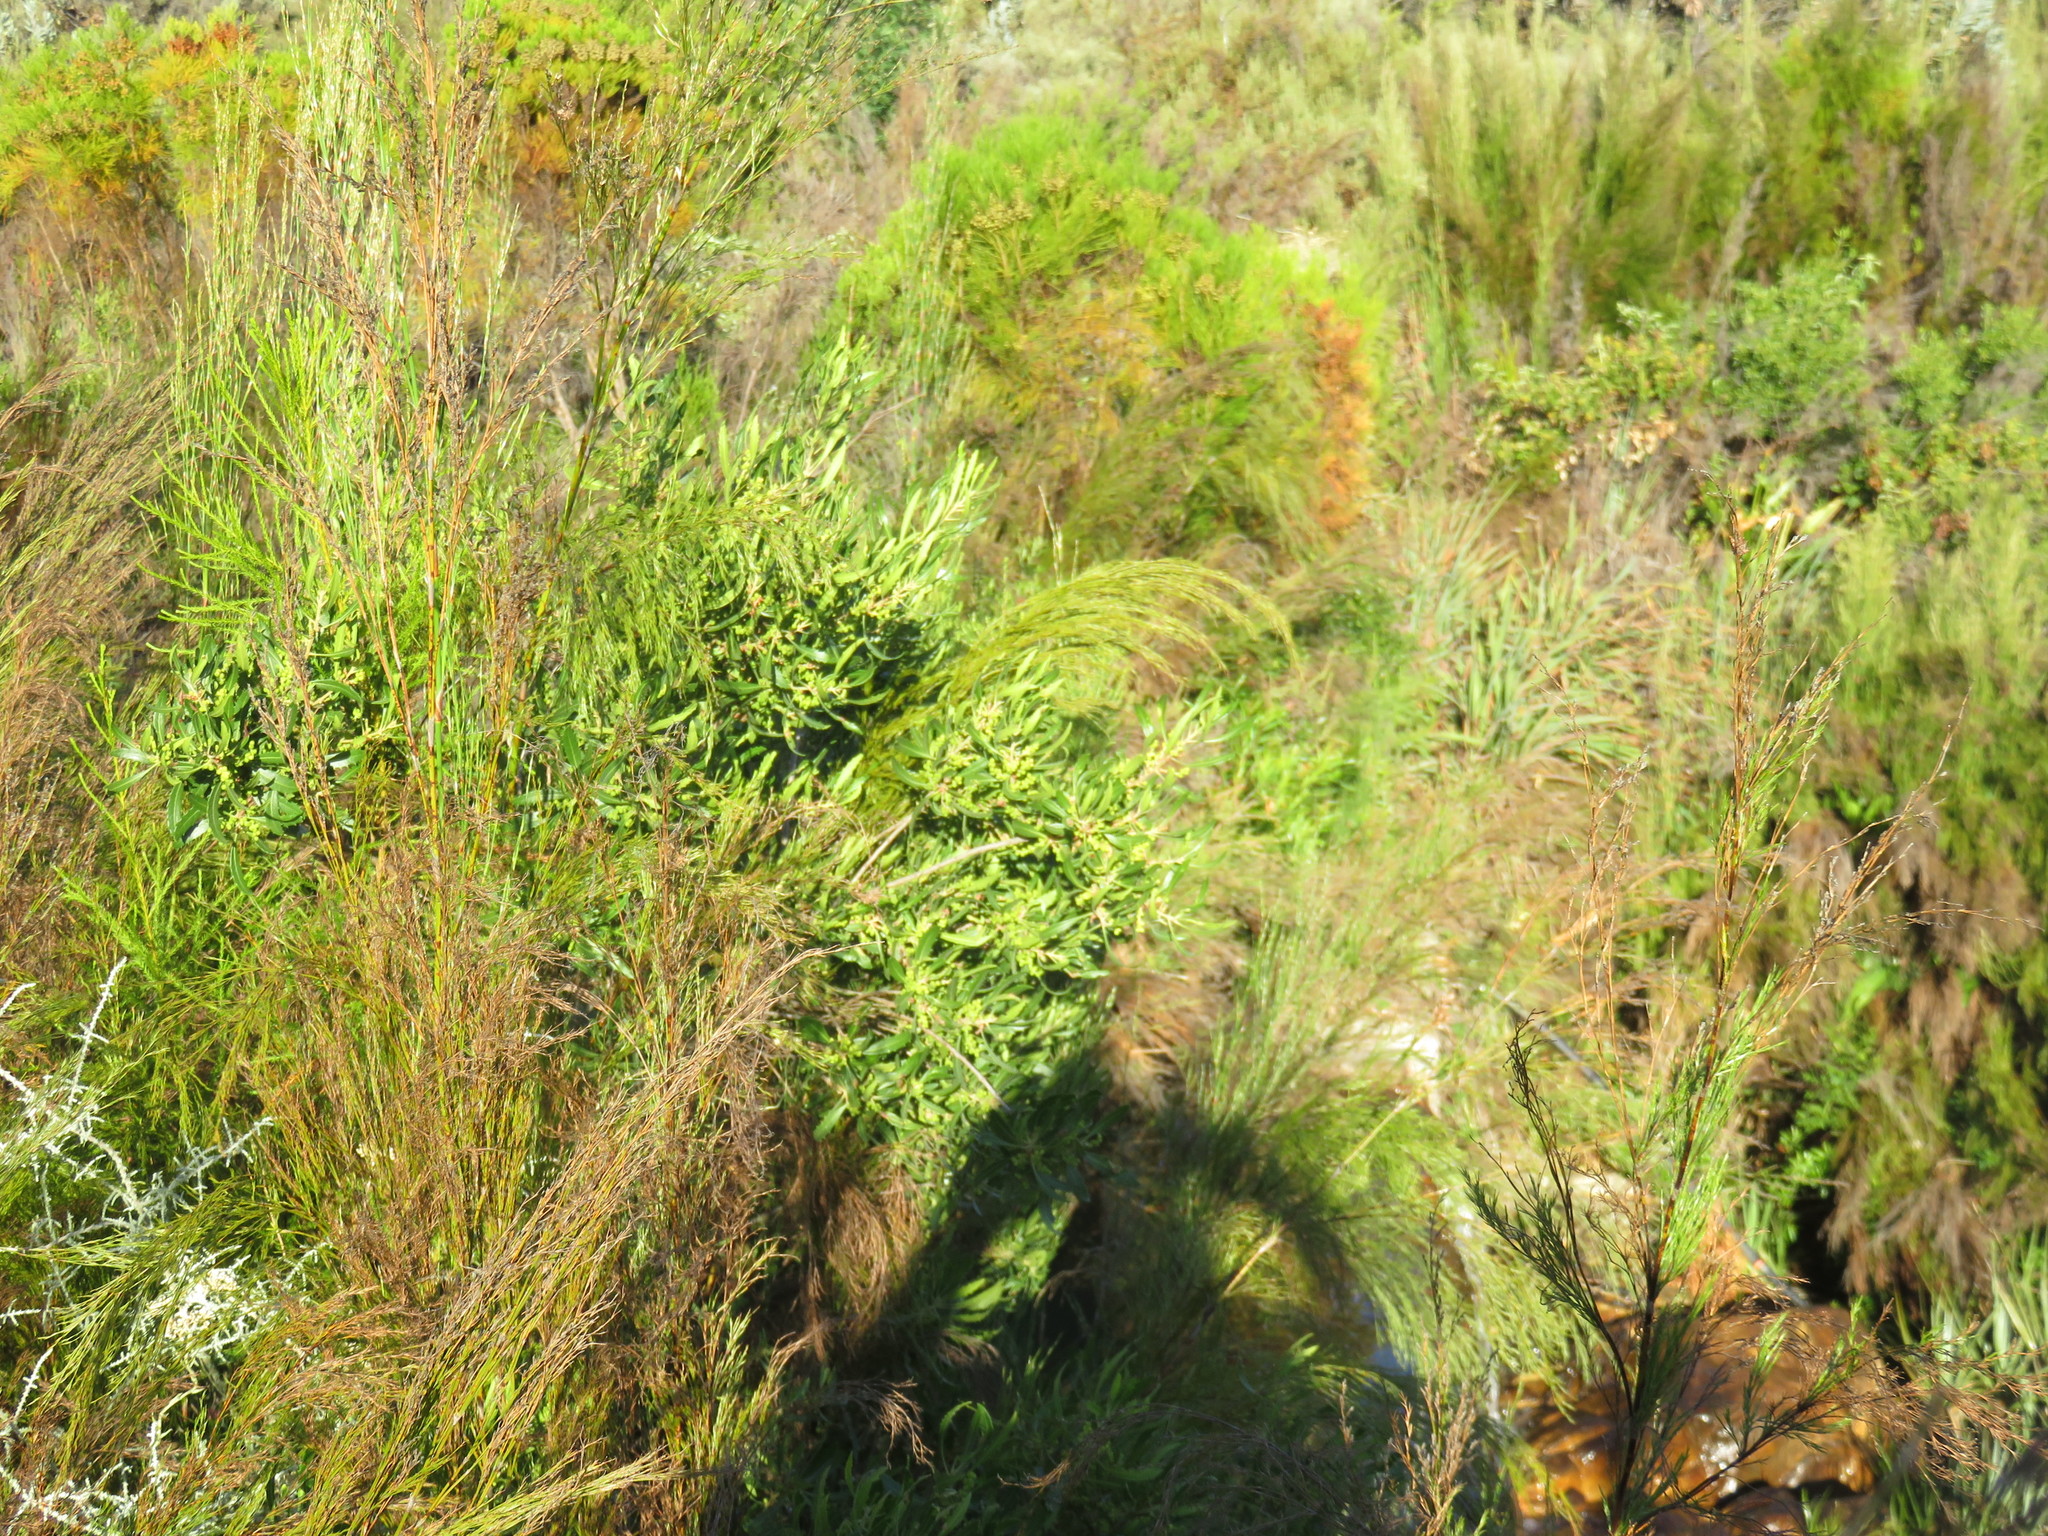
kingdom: Plantae
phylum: Tracheophyta
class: Magnoliopsida
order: Fagales
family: Myricaceae
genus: Morella
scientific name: Morella integra
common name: Western lance-leaved wax-berry
